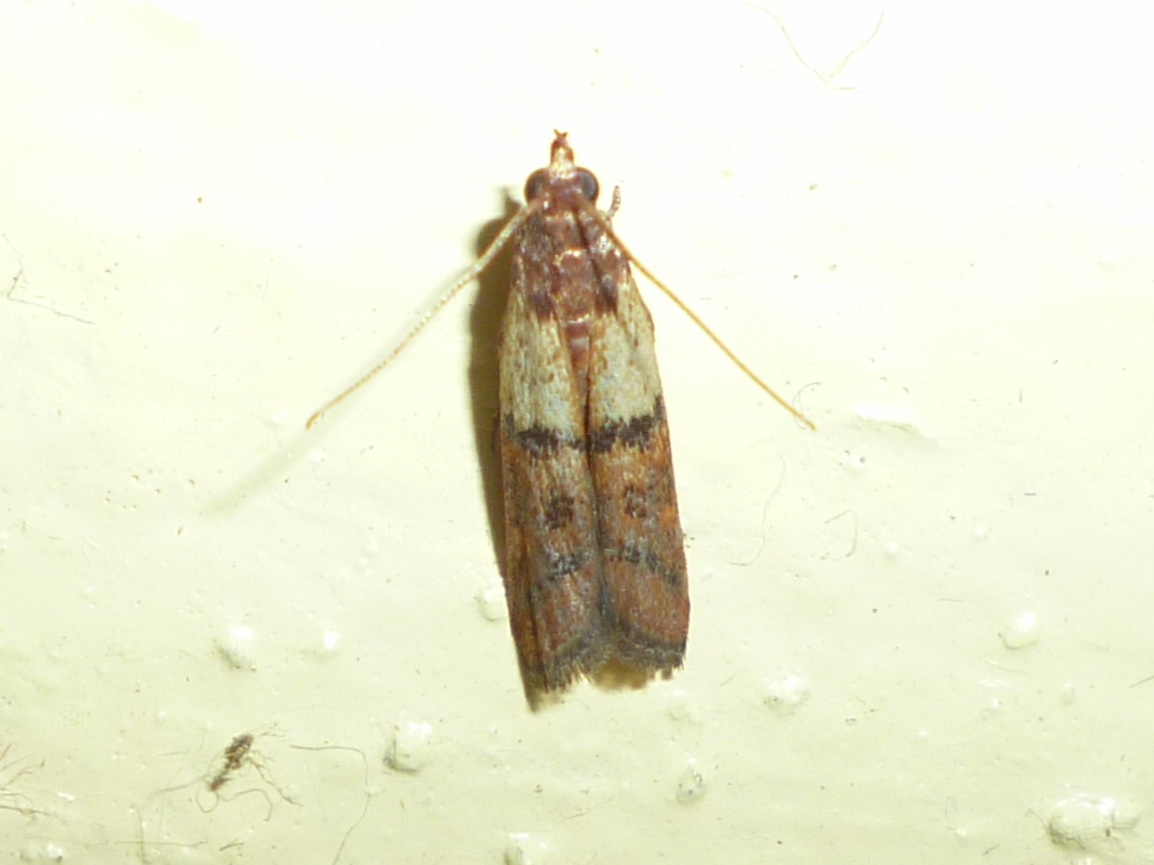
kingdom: Animalia
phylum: Arthropoda
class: Insecta
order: Lepidoptera
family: Pyralidae
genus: Plodia
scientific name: Plodia interpunctella
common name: Indian meal moth
